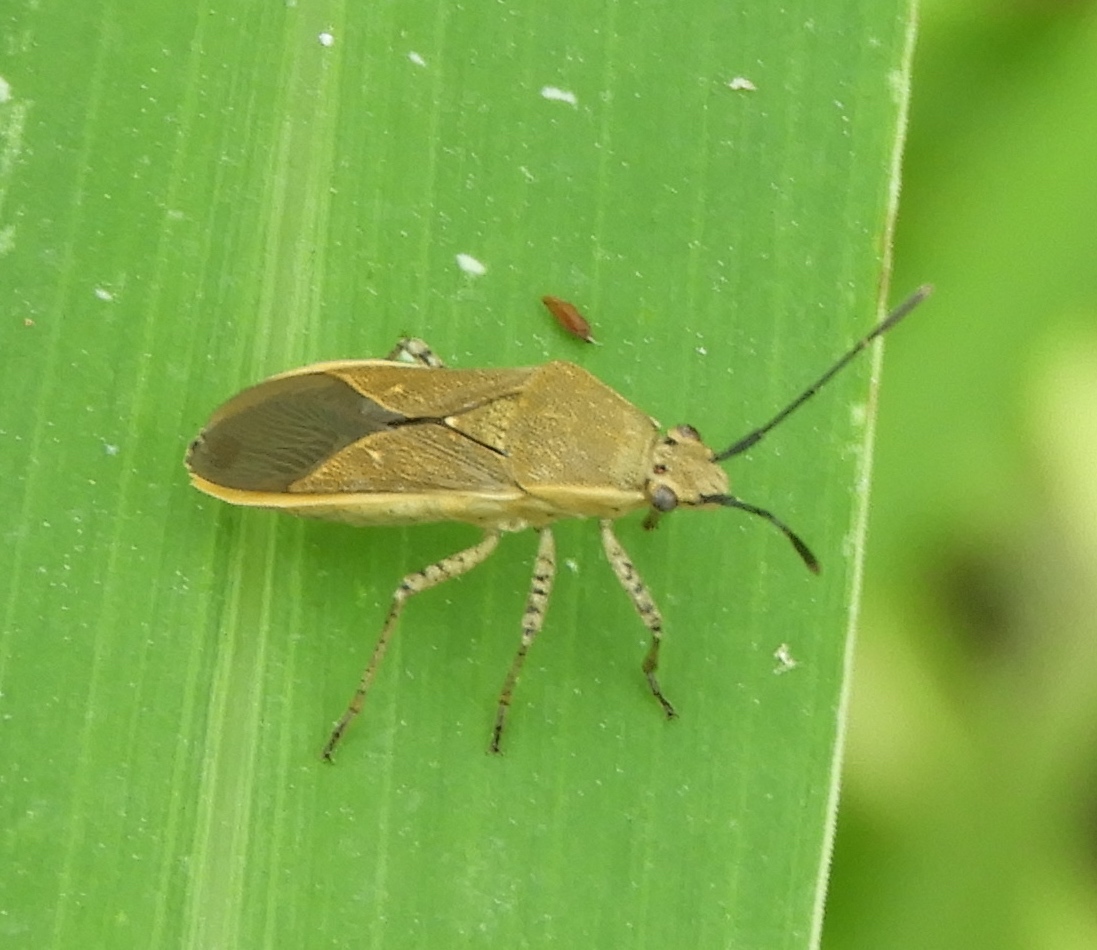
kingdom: Animalia
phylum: Arthropoda
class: Insecta
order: Hemiptera
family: Coreidae
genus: Catorhintha
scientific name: Catorhintha selector
